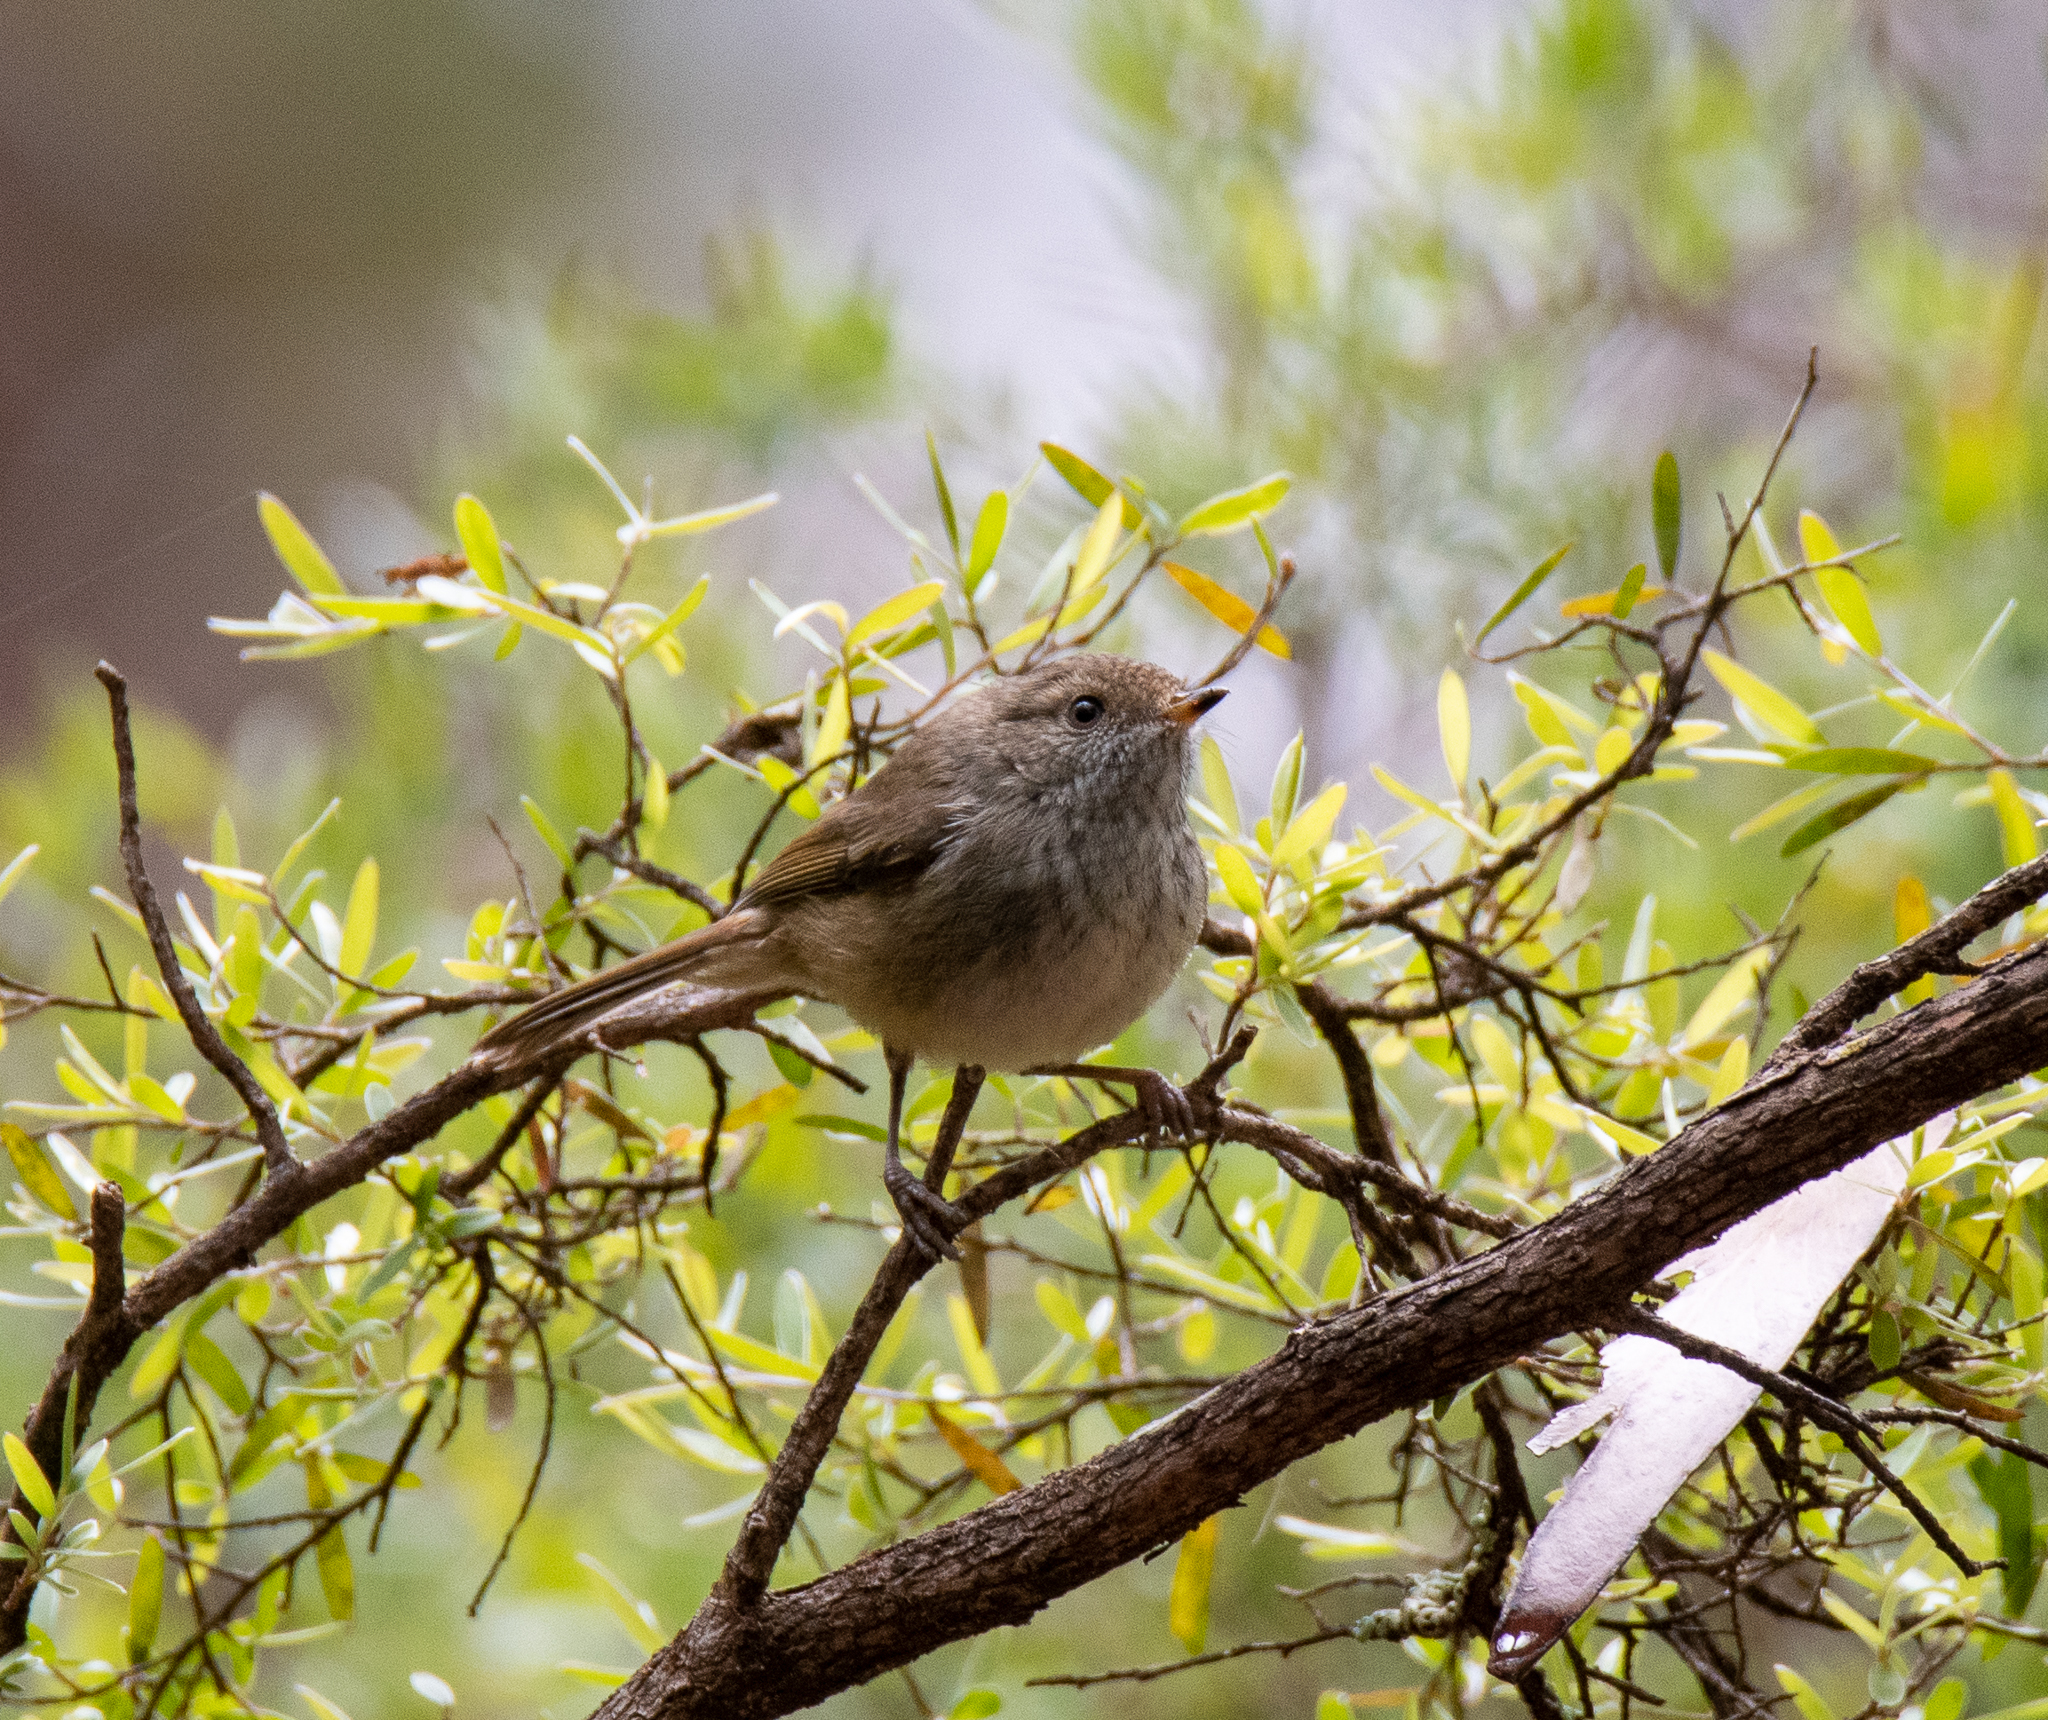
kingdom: Animalia
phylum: Chordata
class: Aves
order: Passeriformes
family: Acanthizidae
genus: Acanthiza
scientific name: Acanthiza pusilla
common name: Brown thornbill
